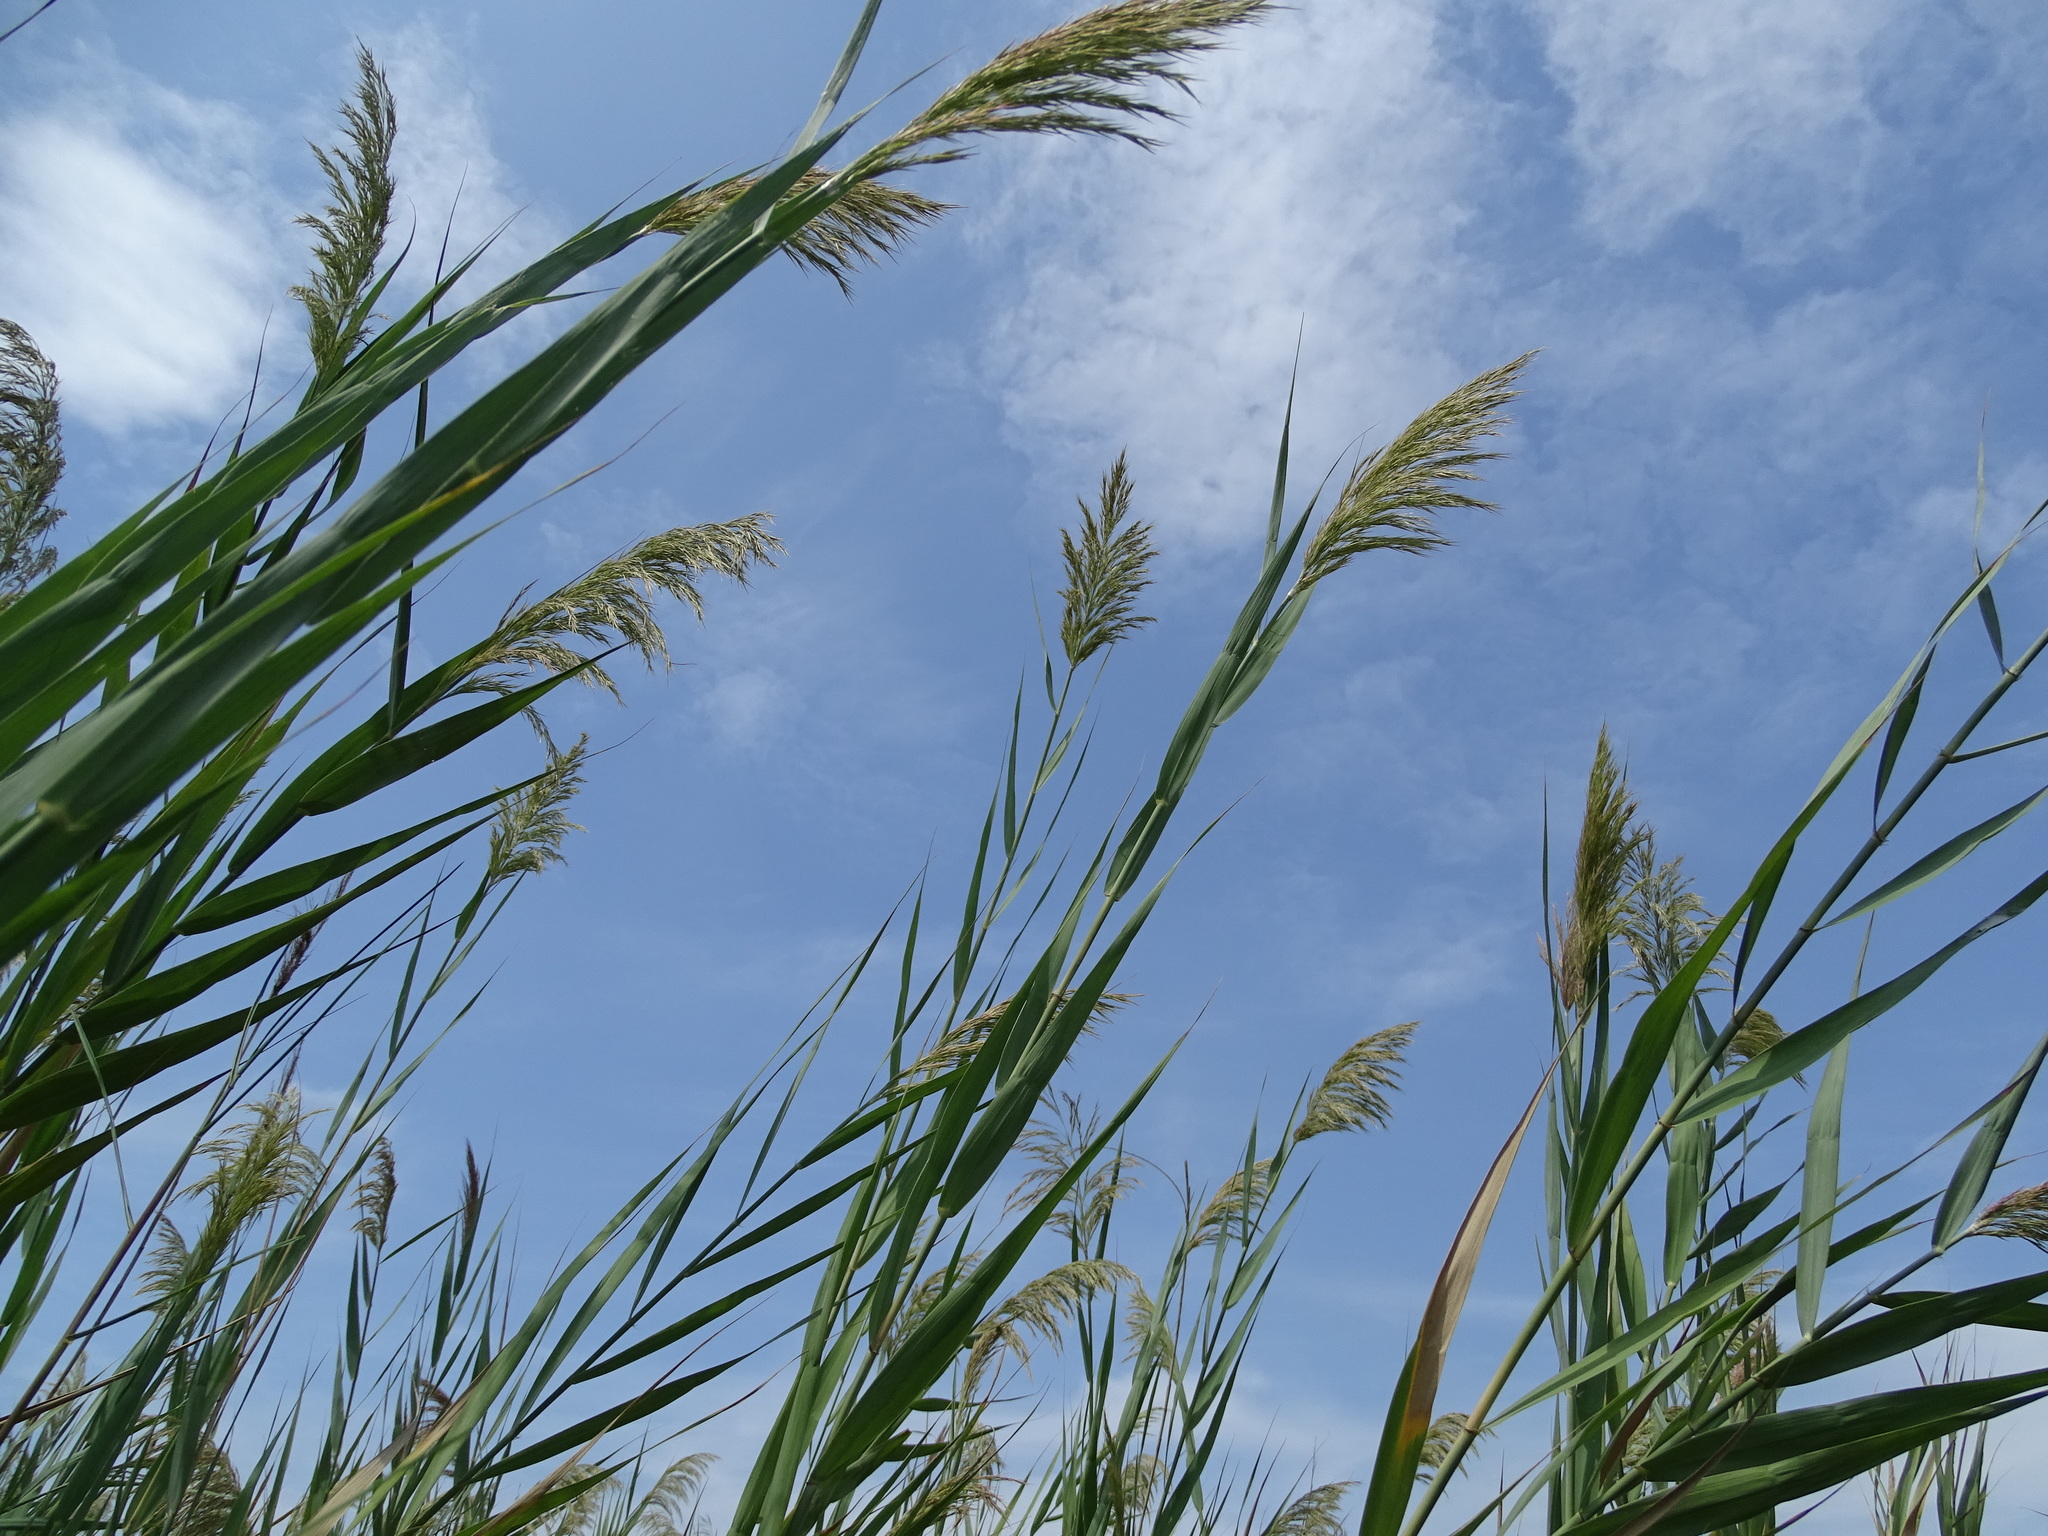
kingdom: Plantae
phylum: Tracheophyta
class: Liliopsida
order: Poales
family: Poaceae
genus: Phragmites
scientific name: Phragmites australis
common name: Common reed
